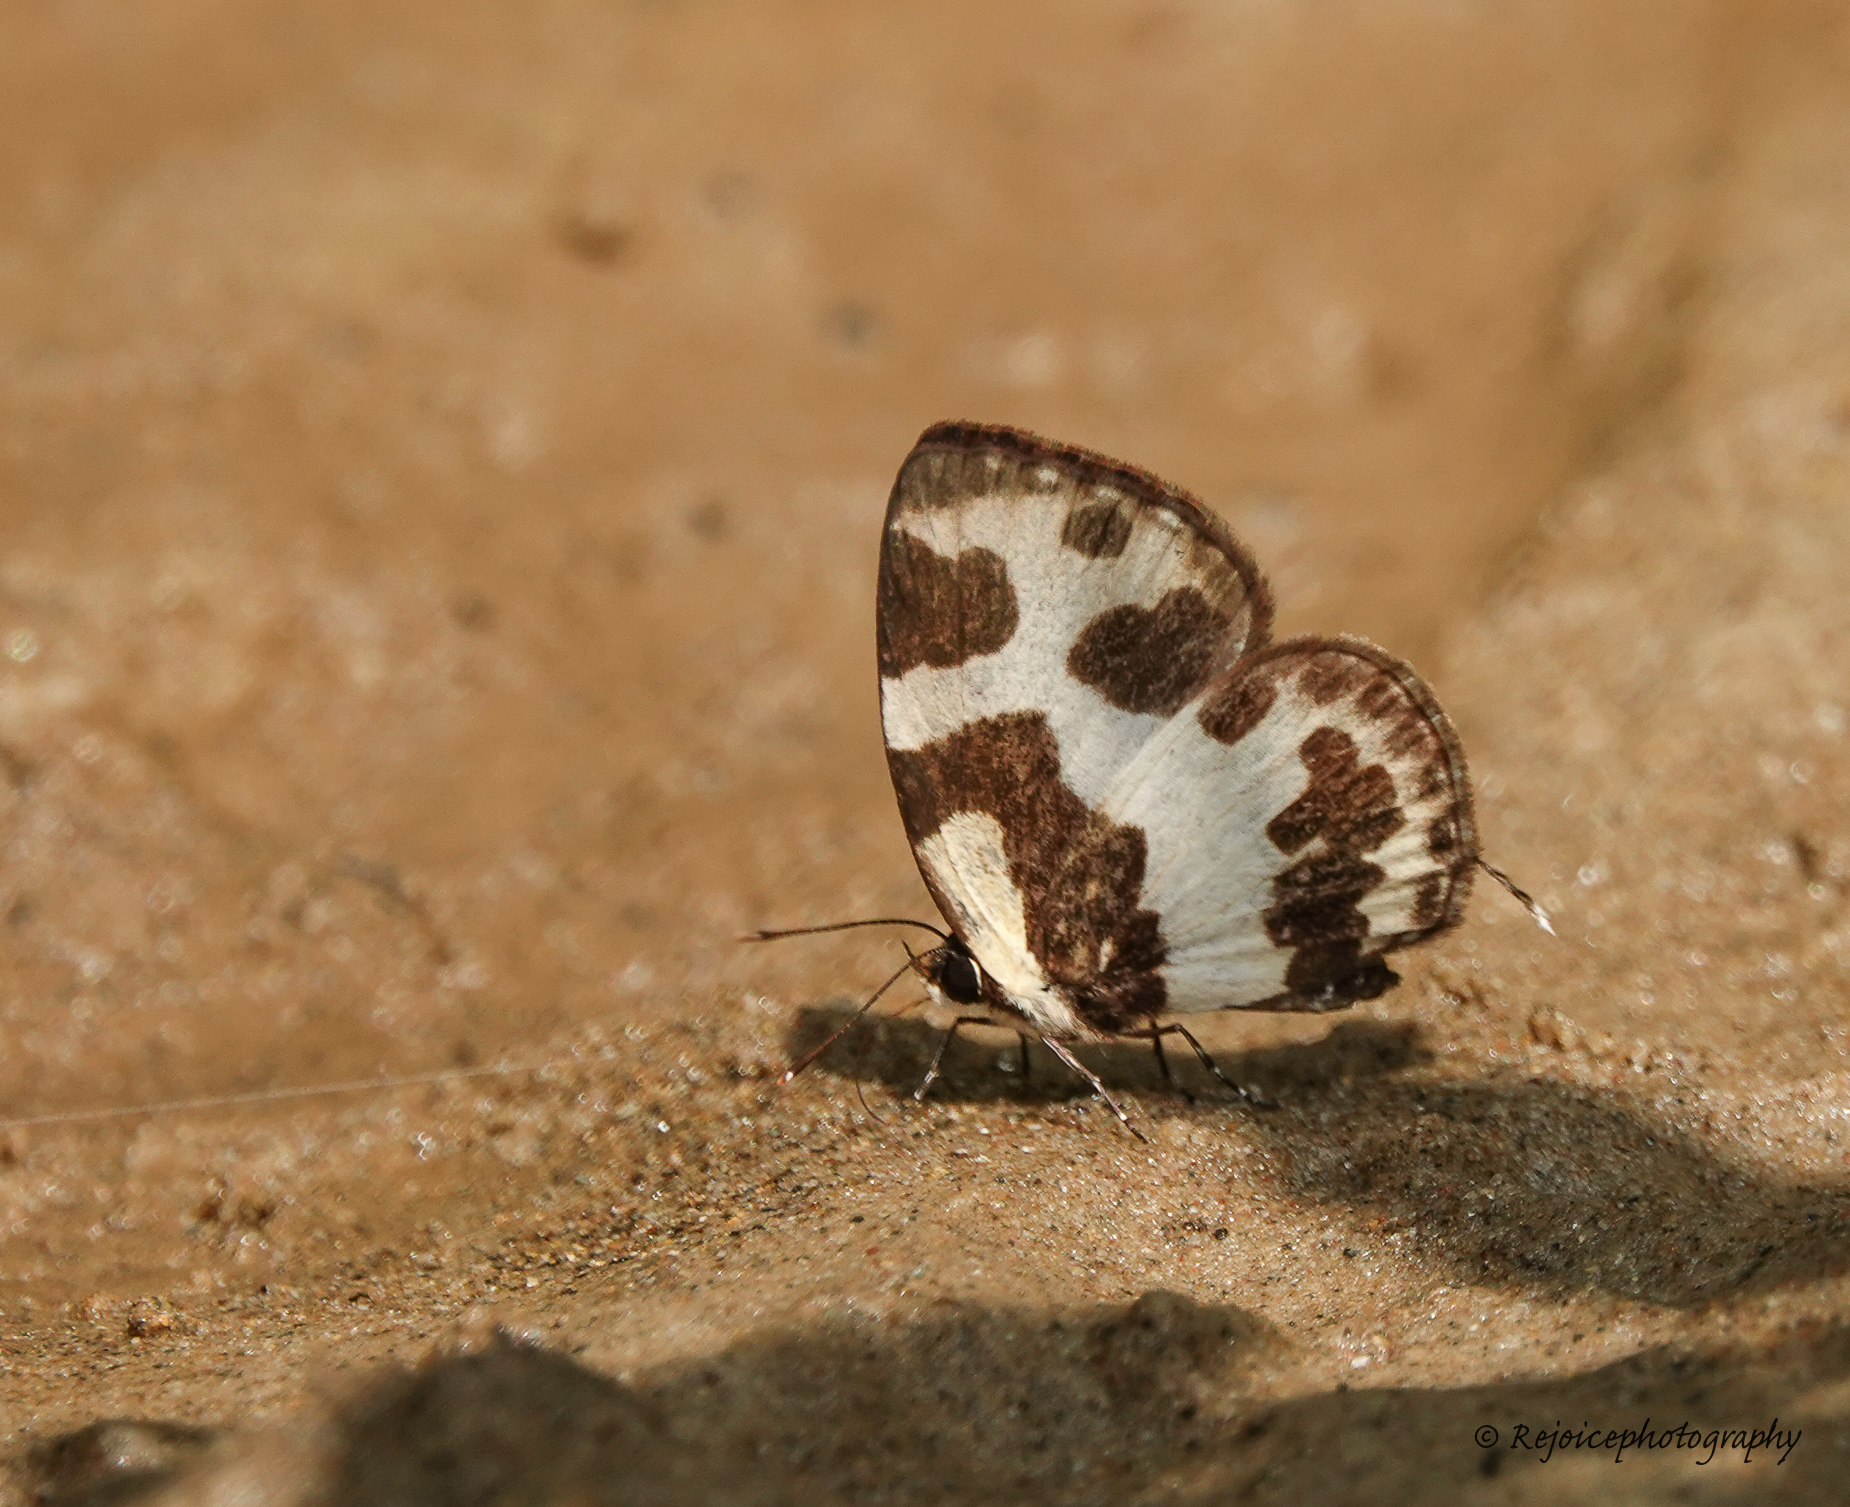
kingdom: Animalia
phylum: Arthropoda
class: Insecta
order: Lepidoptera
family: Lycaenidae
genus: Caleta
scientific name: Caleta elna
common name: Elbowed pierrot
